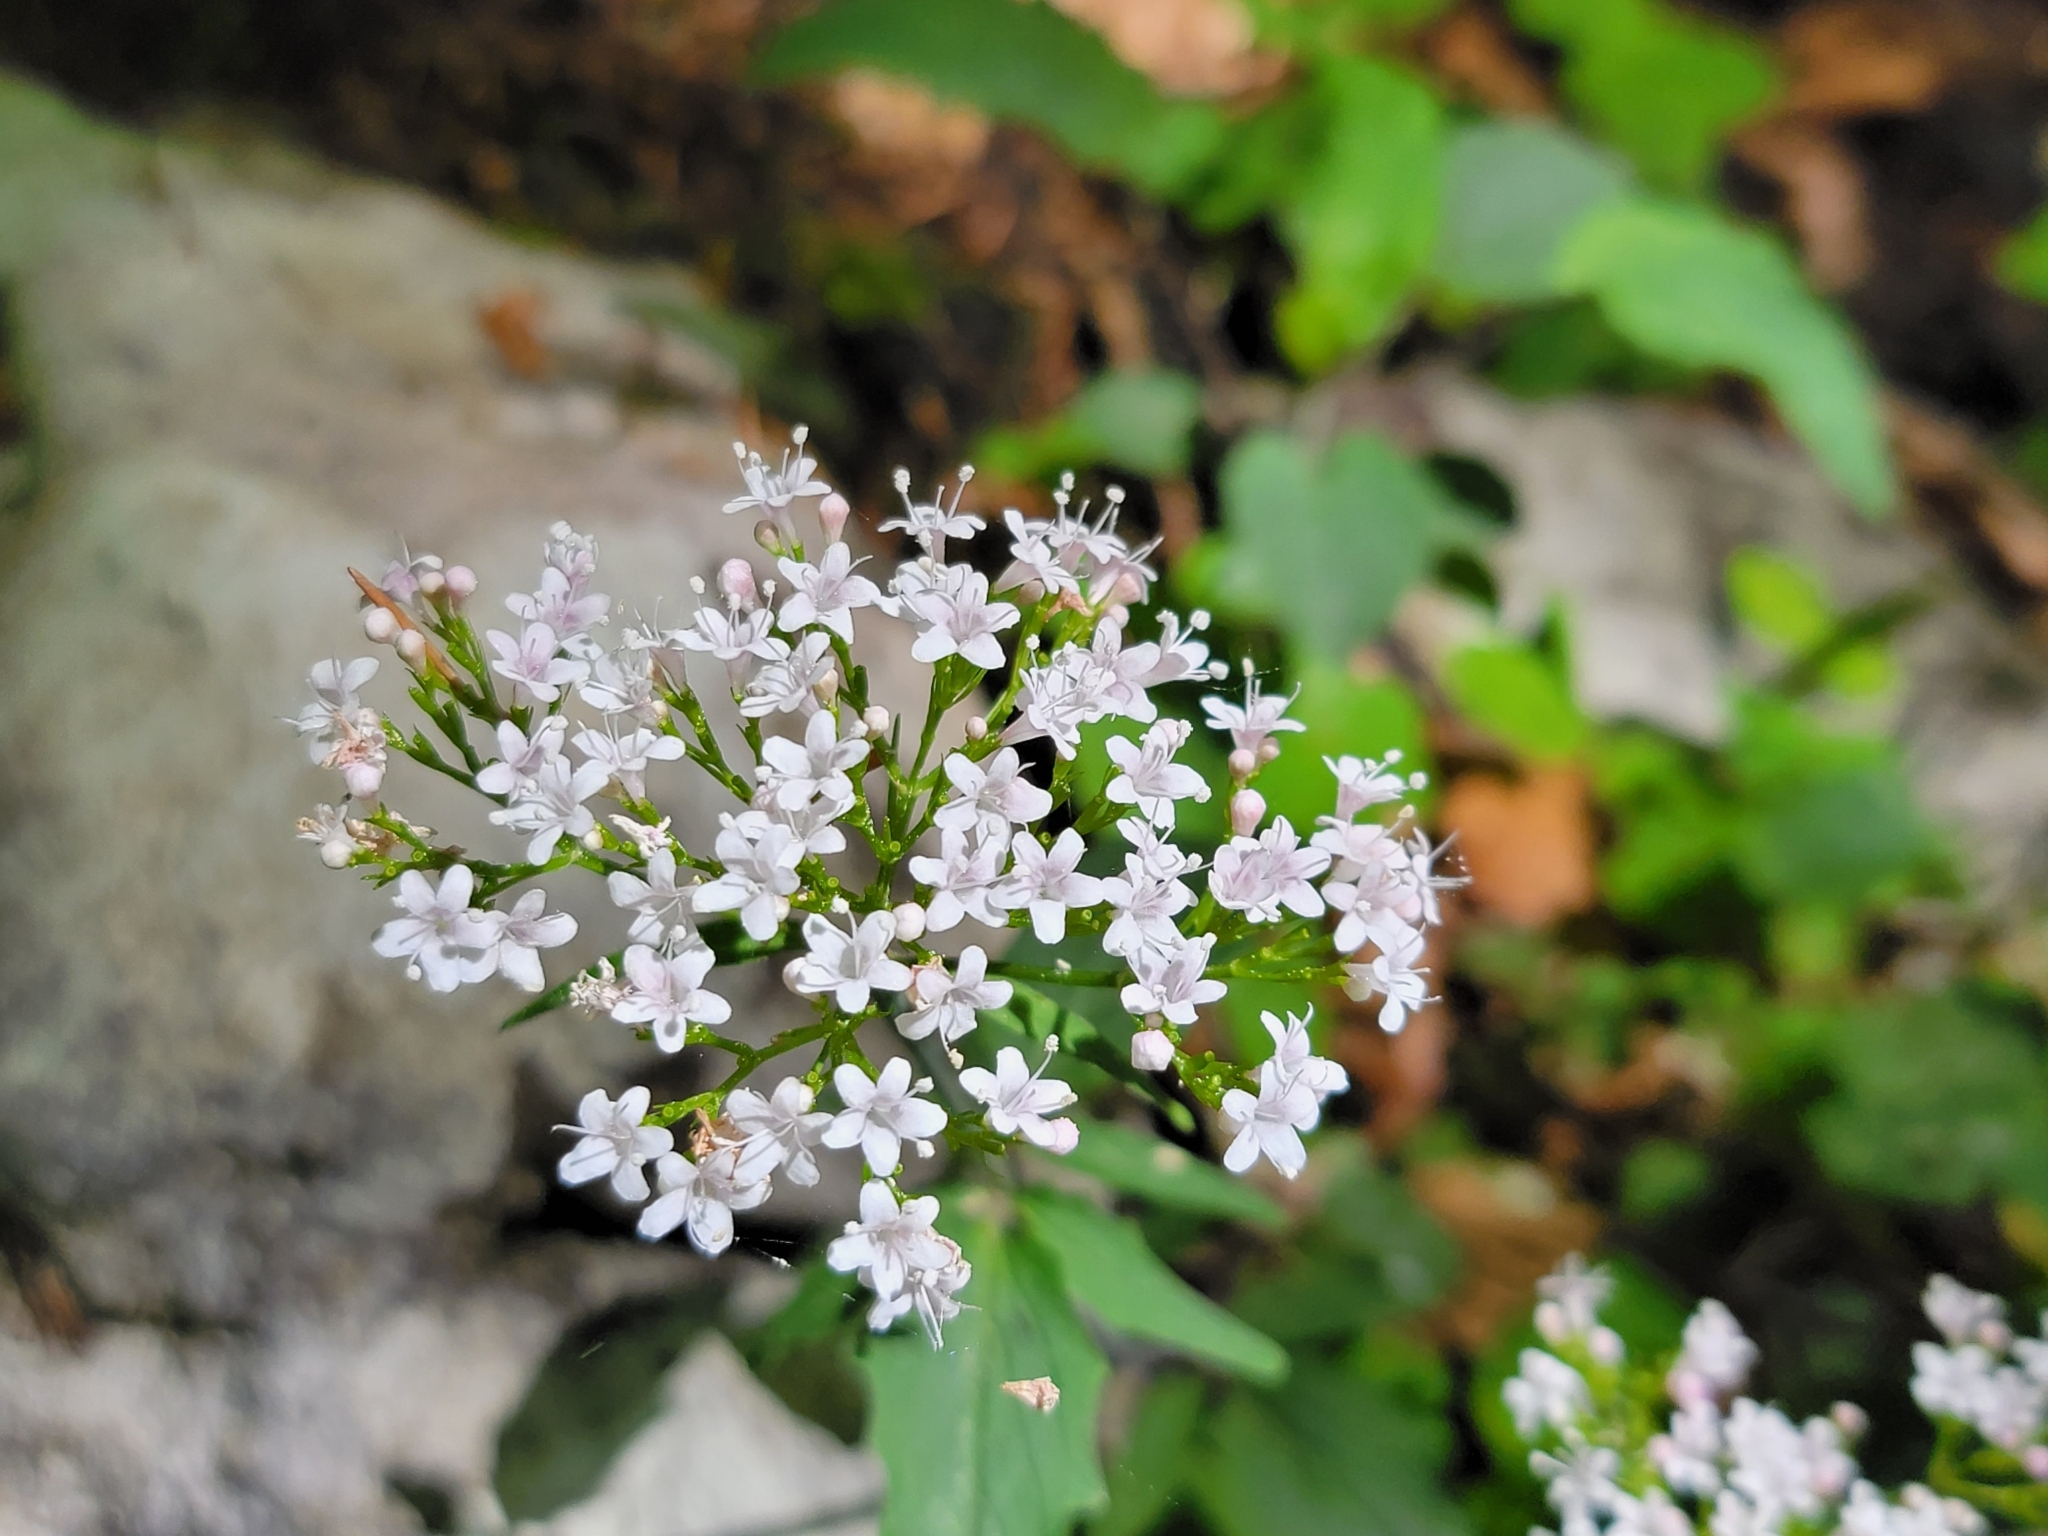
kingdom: Plantae
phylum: Tracheophyta
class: Magnoliopsida
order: Dipsacales
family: Caprifoliaceae
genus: Valeriana
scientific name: Valeriana tripteris
